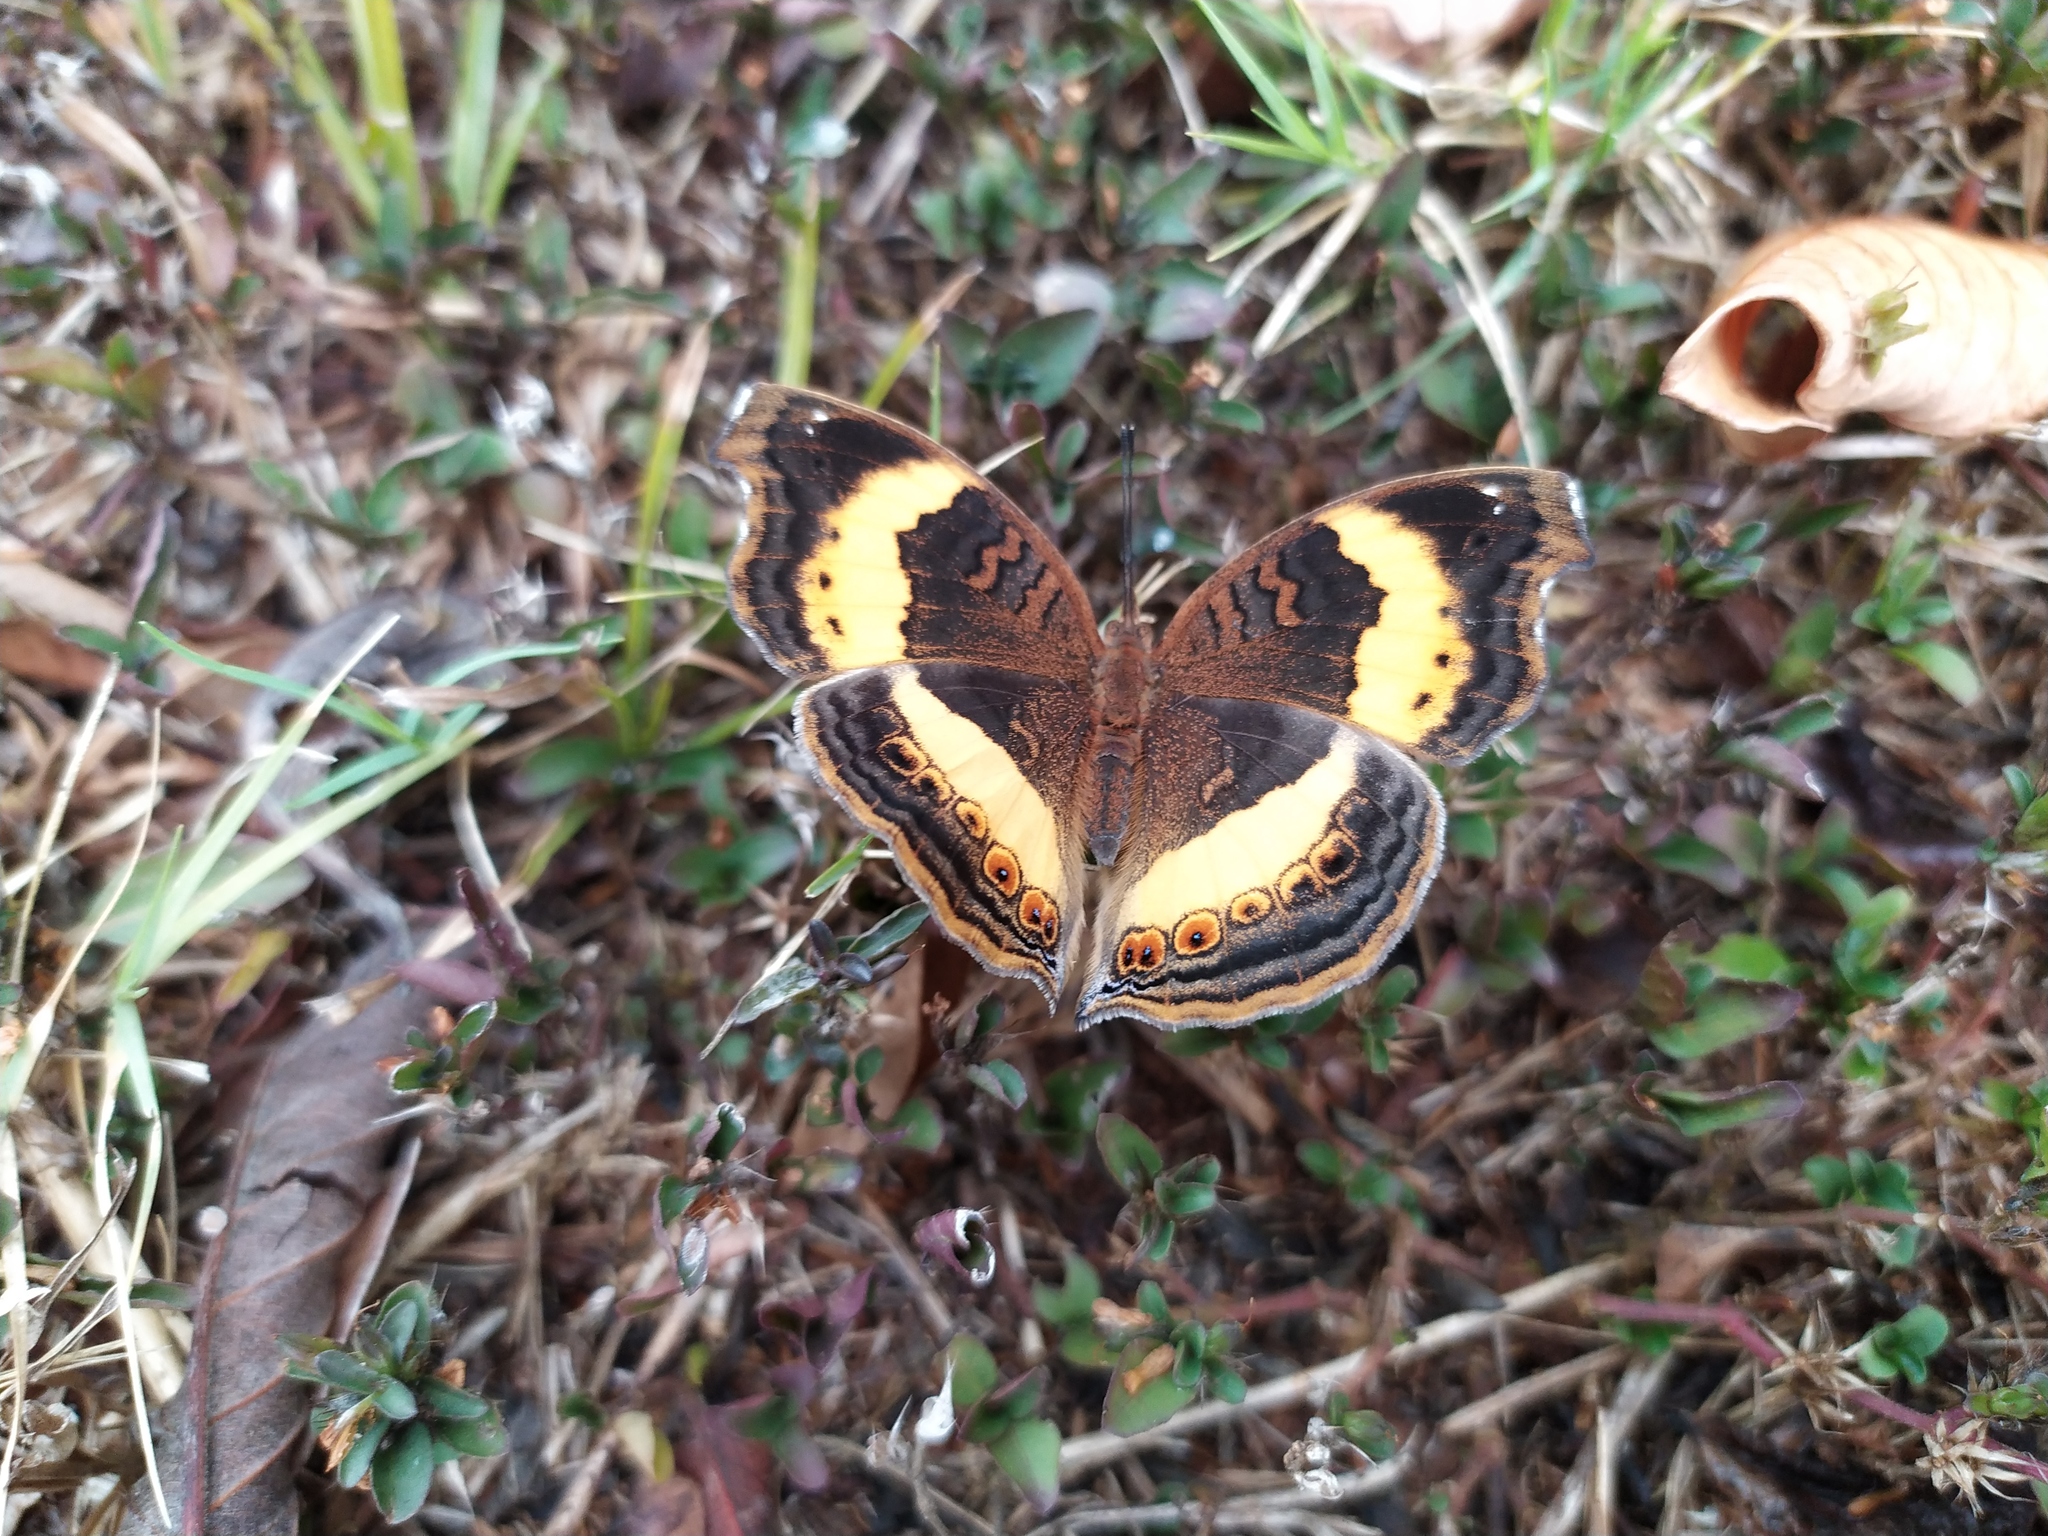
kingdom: Animalia
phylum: Arthropoda
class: Insecta
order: Lepidoptera
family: Nymphalidae
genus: Junonia
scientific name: Junonia terea
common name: Soldier pansy
